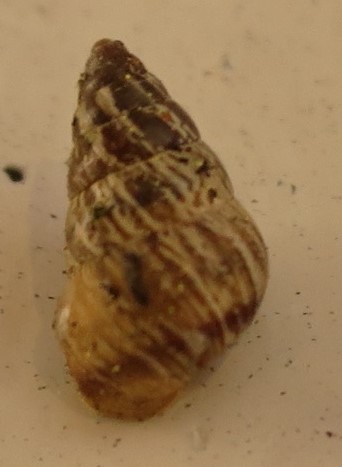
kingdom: Animalia
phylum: Mollusca
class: Gastropoda
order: Stylommatophora
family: Geomitridae
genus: Cochlicella
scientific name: Cochlicella barbara
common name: Potbellied helicellid
